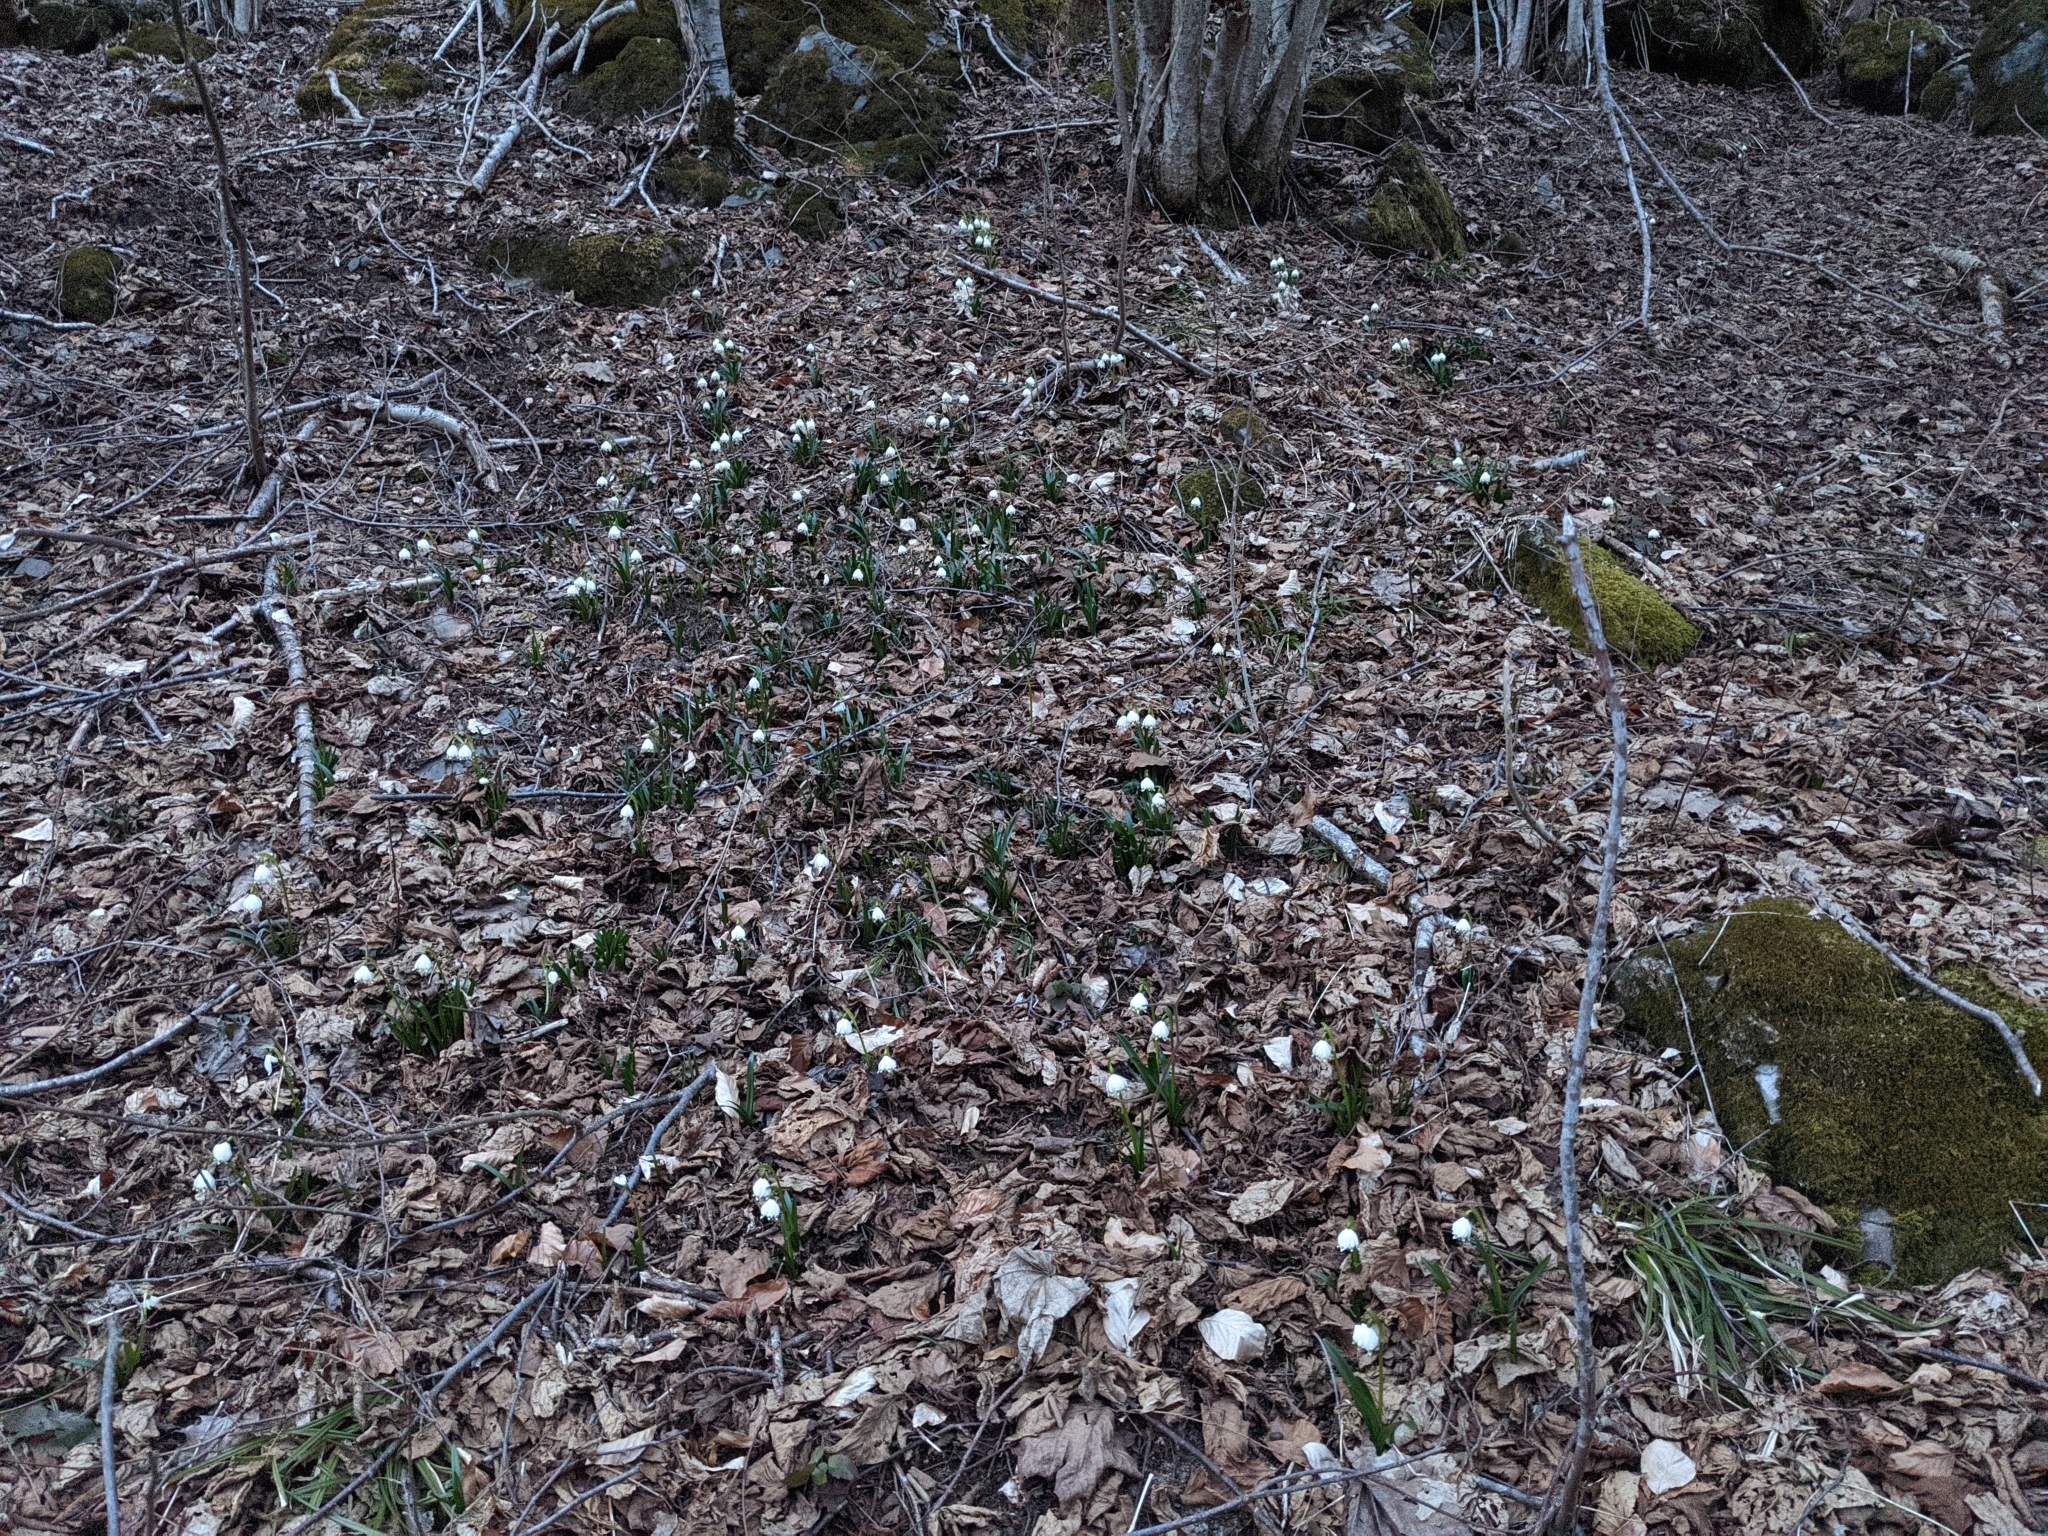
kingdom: Plantae
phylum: Tracheophyta
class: Liliopsida
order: Asparagales
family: Amaryllidaceae
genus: Leucojum
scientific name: Leucojum vernum
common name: Spring snowflake
